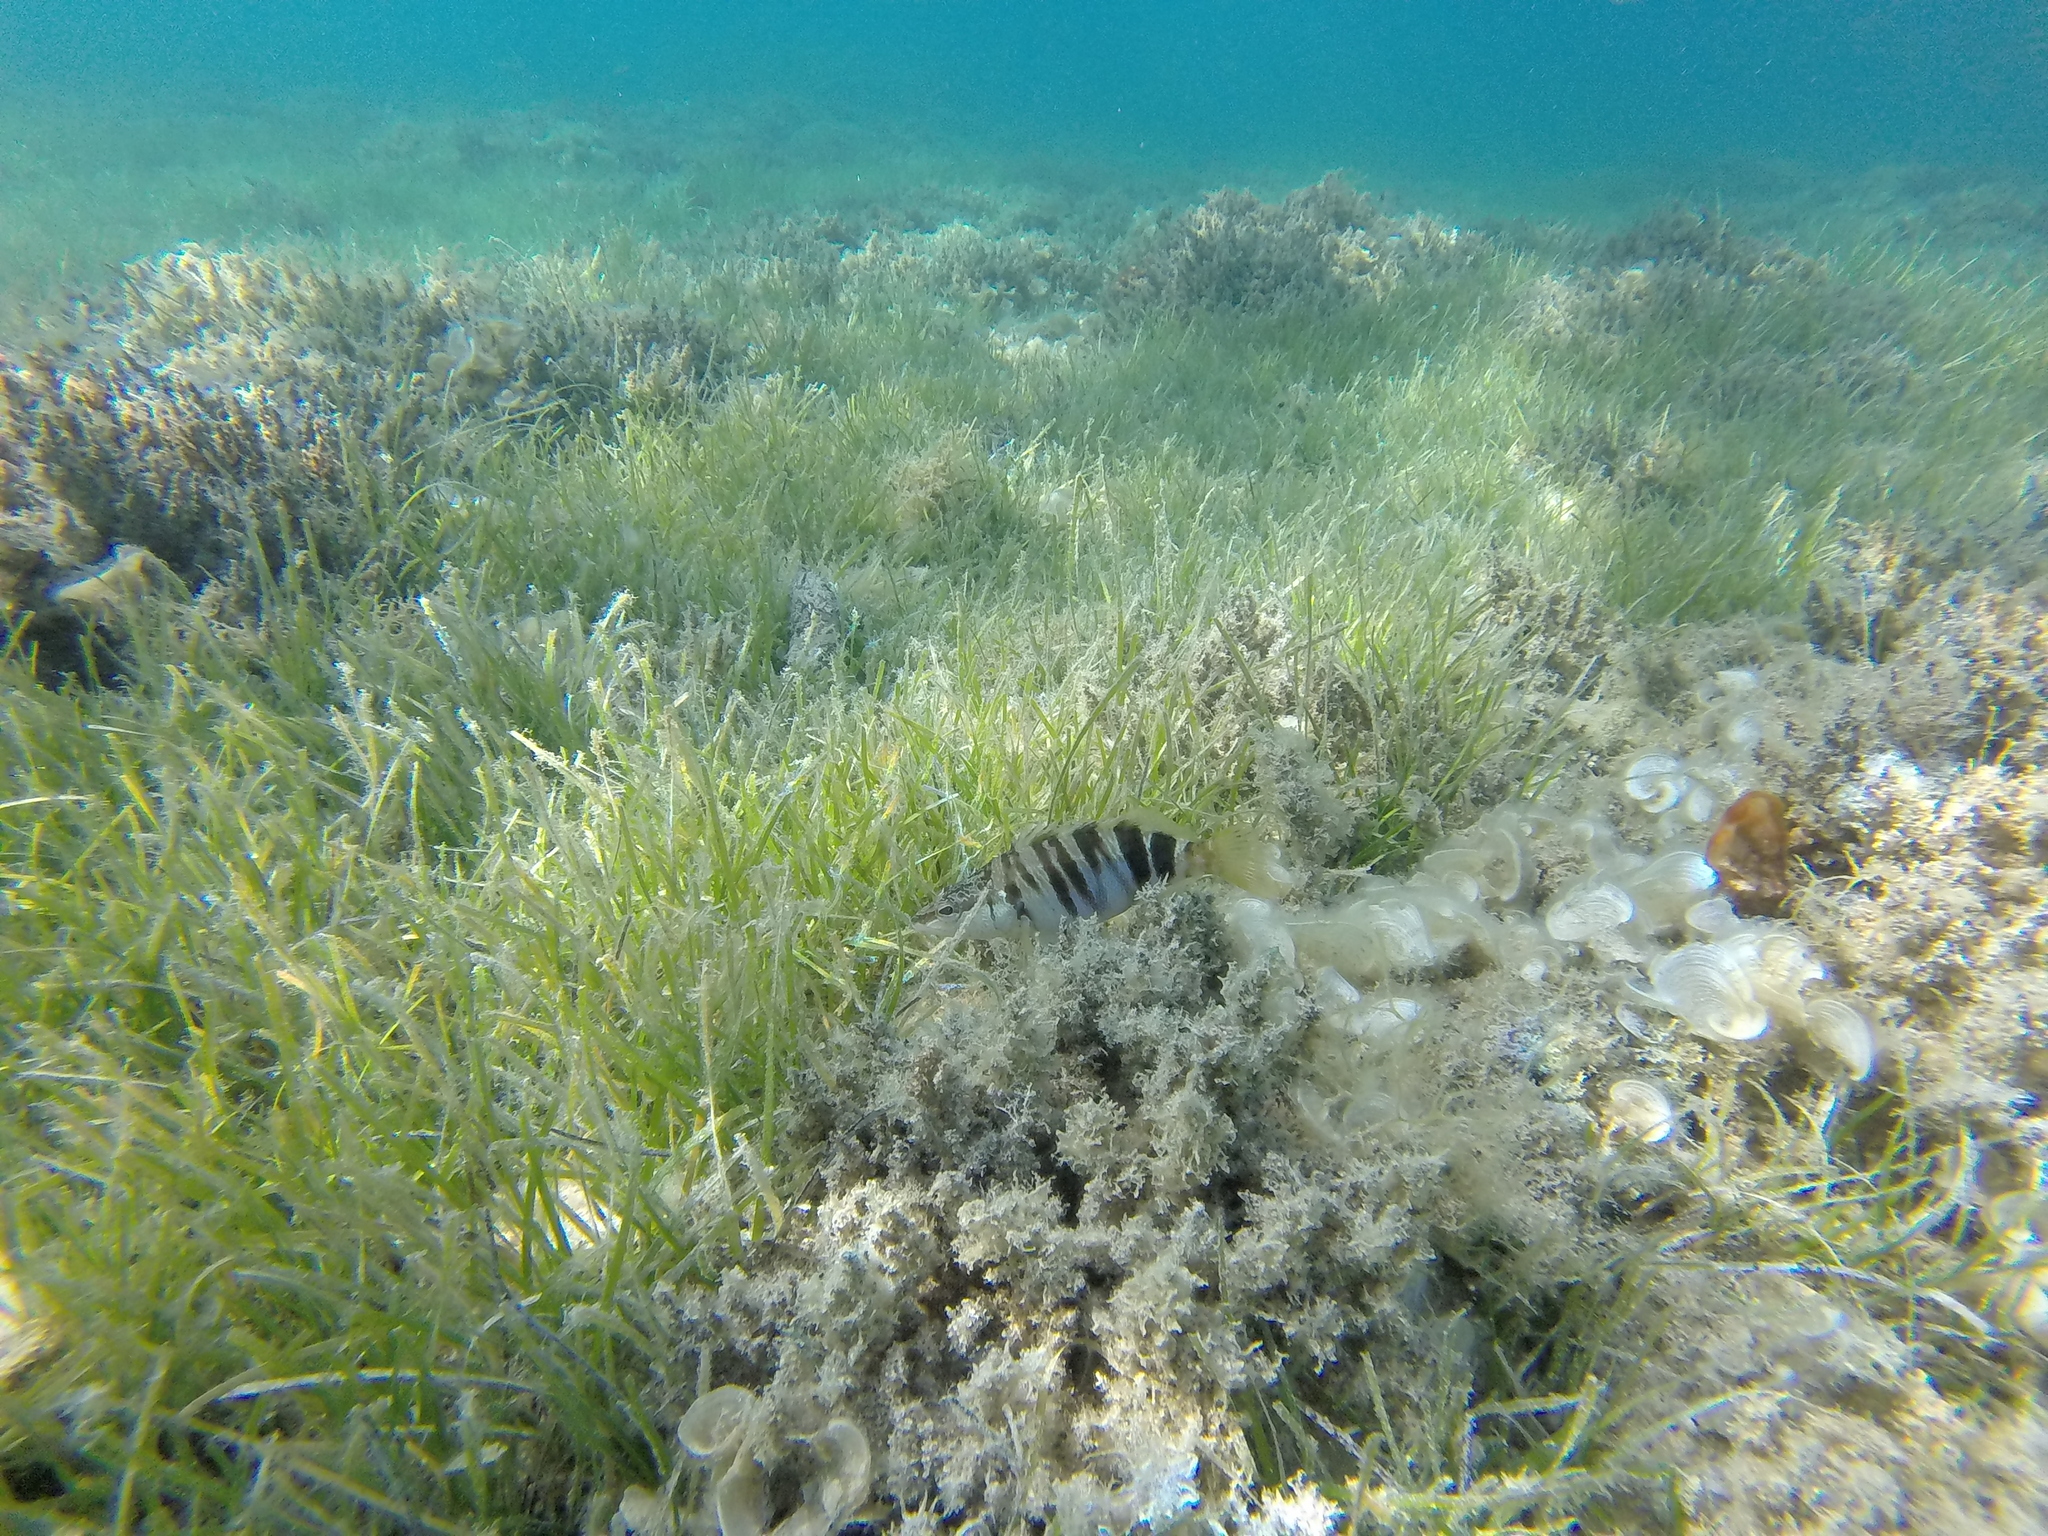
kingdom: Animalia
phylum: Chordata
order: Perciformes
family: Serranidae
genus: Serranus
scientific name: Serranus scriba
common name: Painted comber
